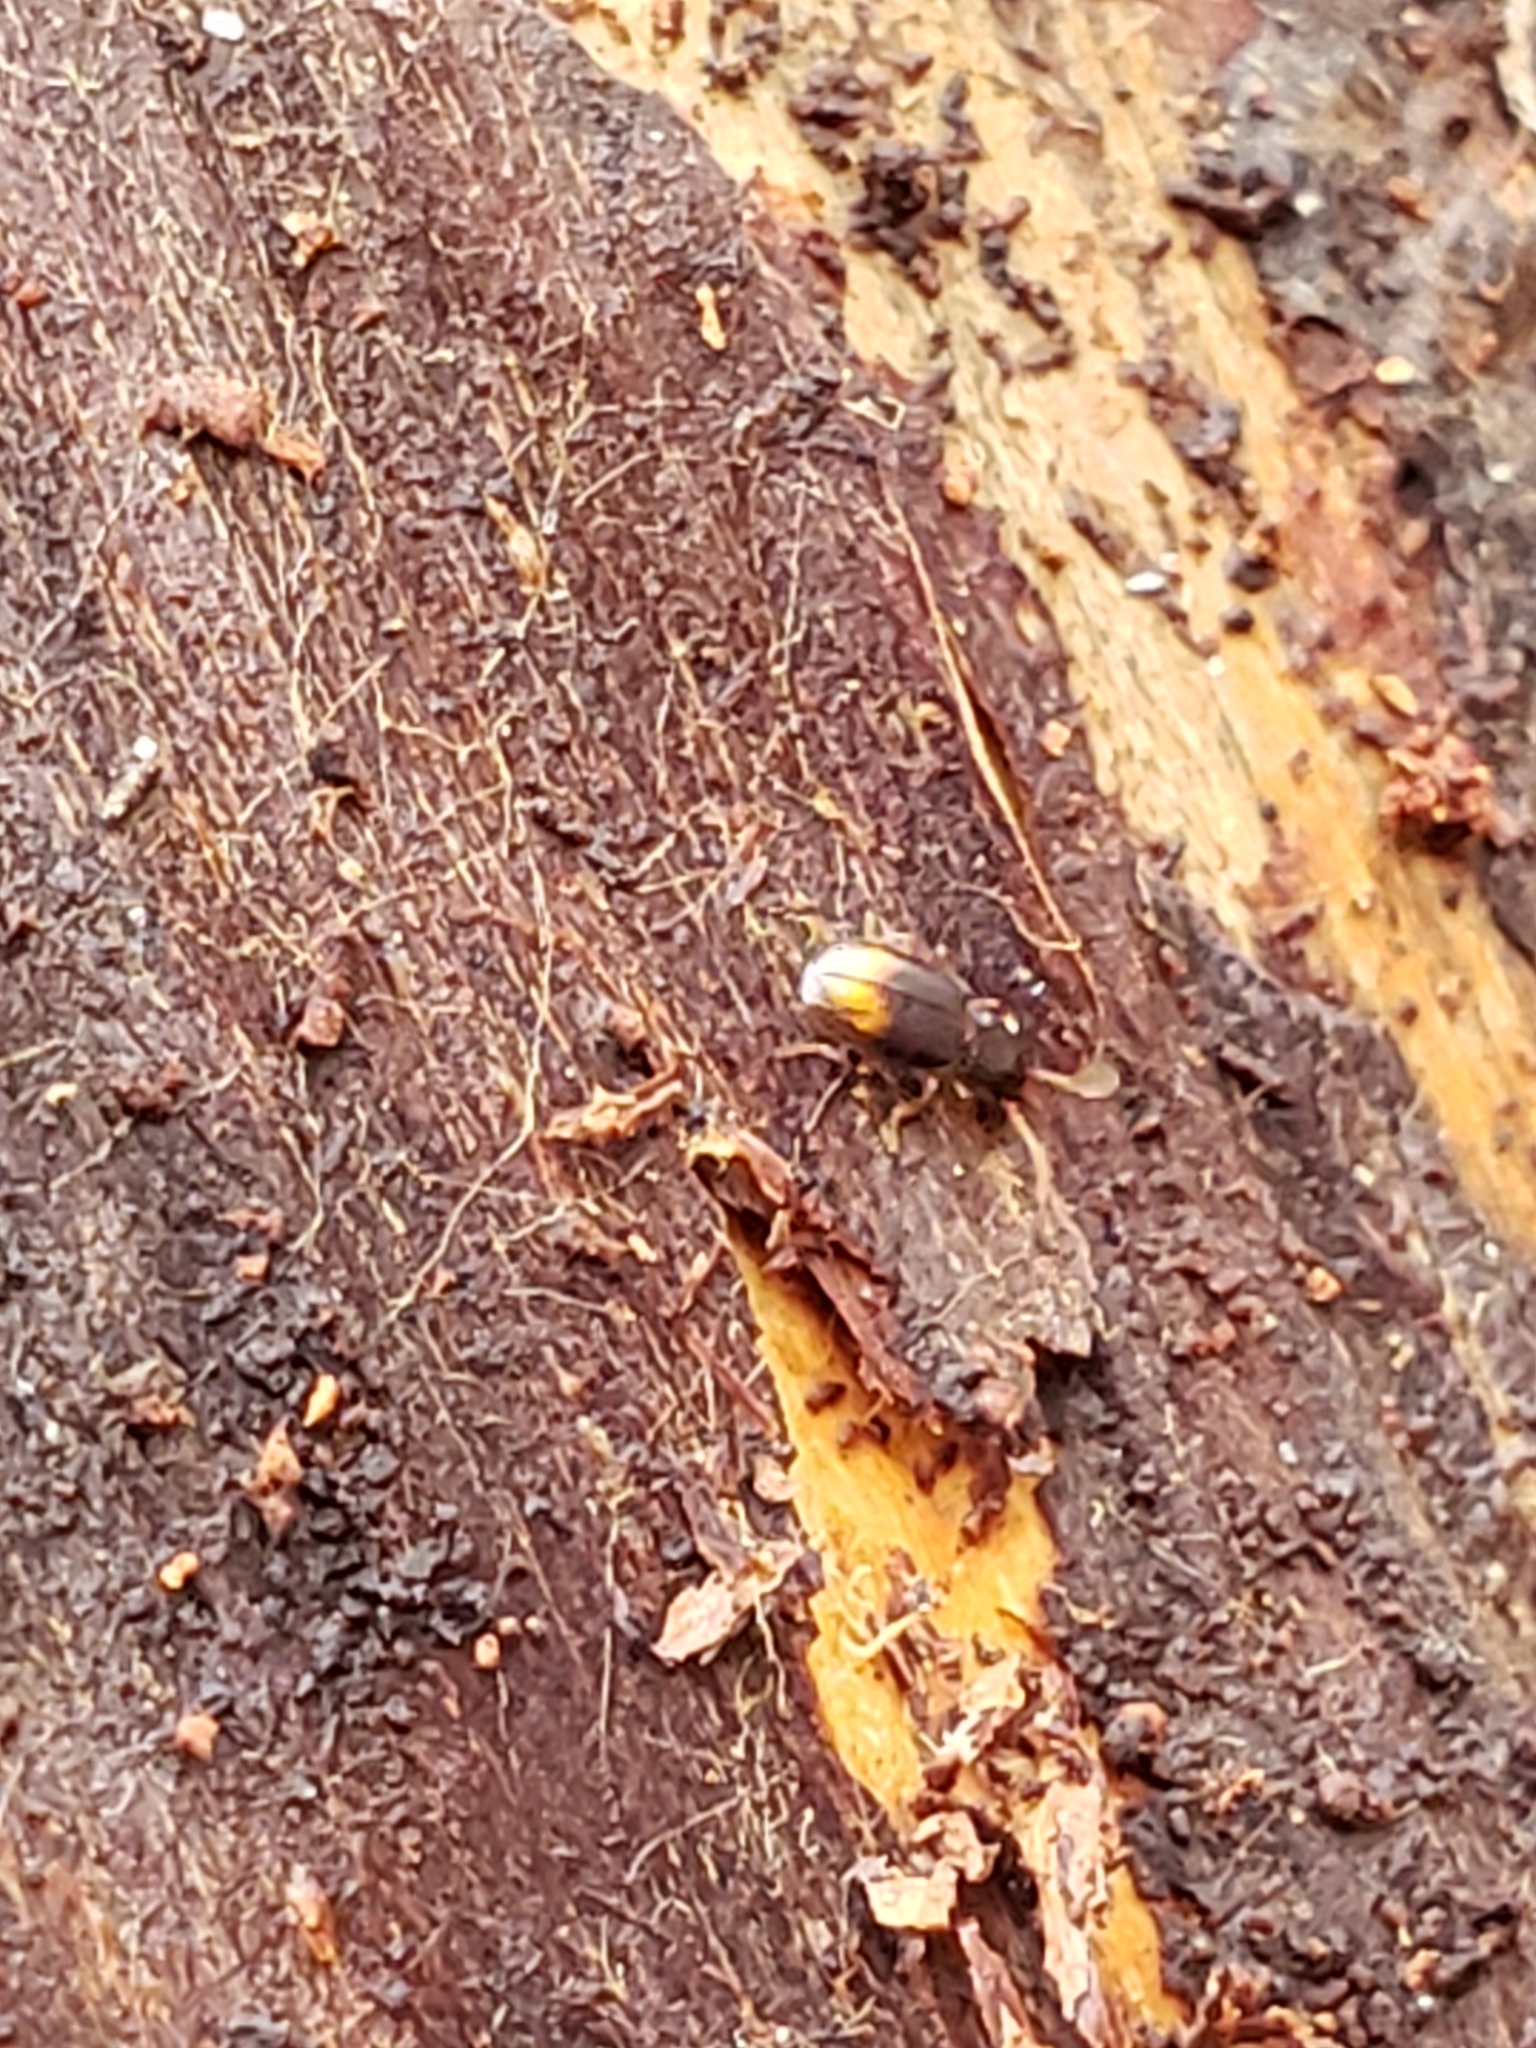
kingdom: Animalia
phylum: Arthropoda
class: Insecta
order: Coleoptera
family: Carabidae
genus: Mioptachys
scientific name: Mioptachys flavicauda
